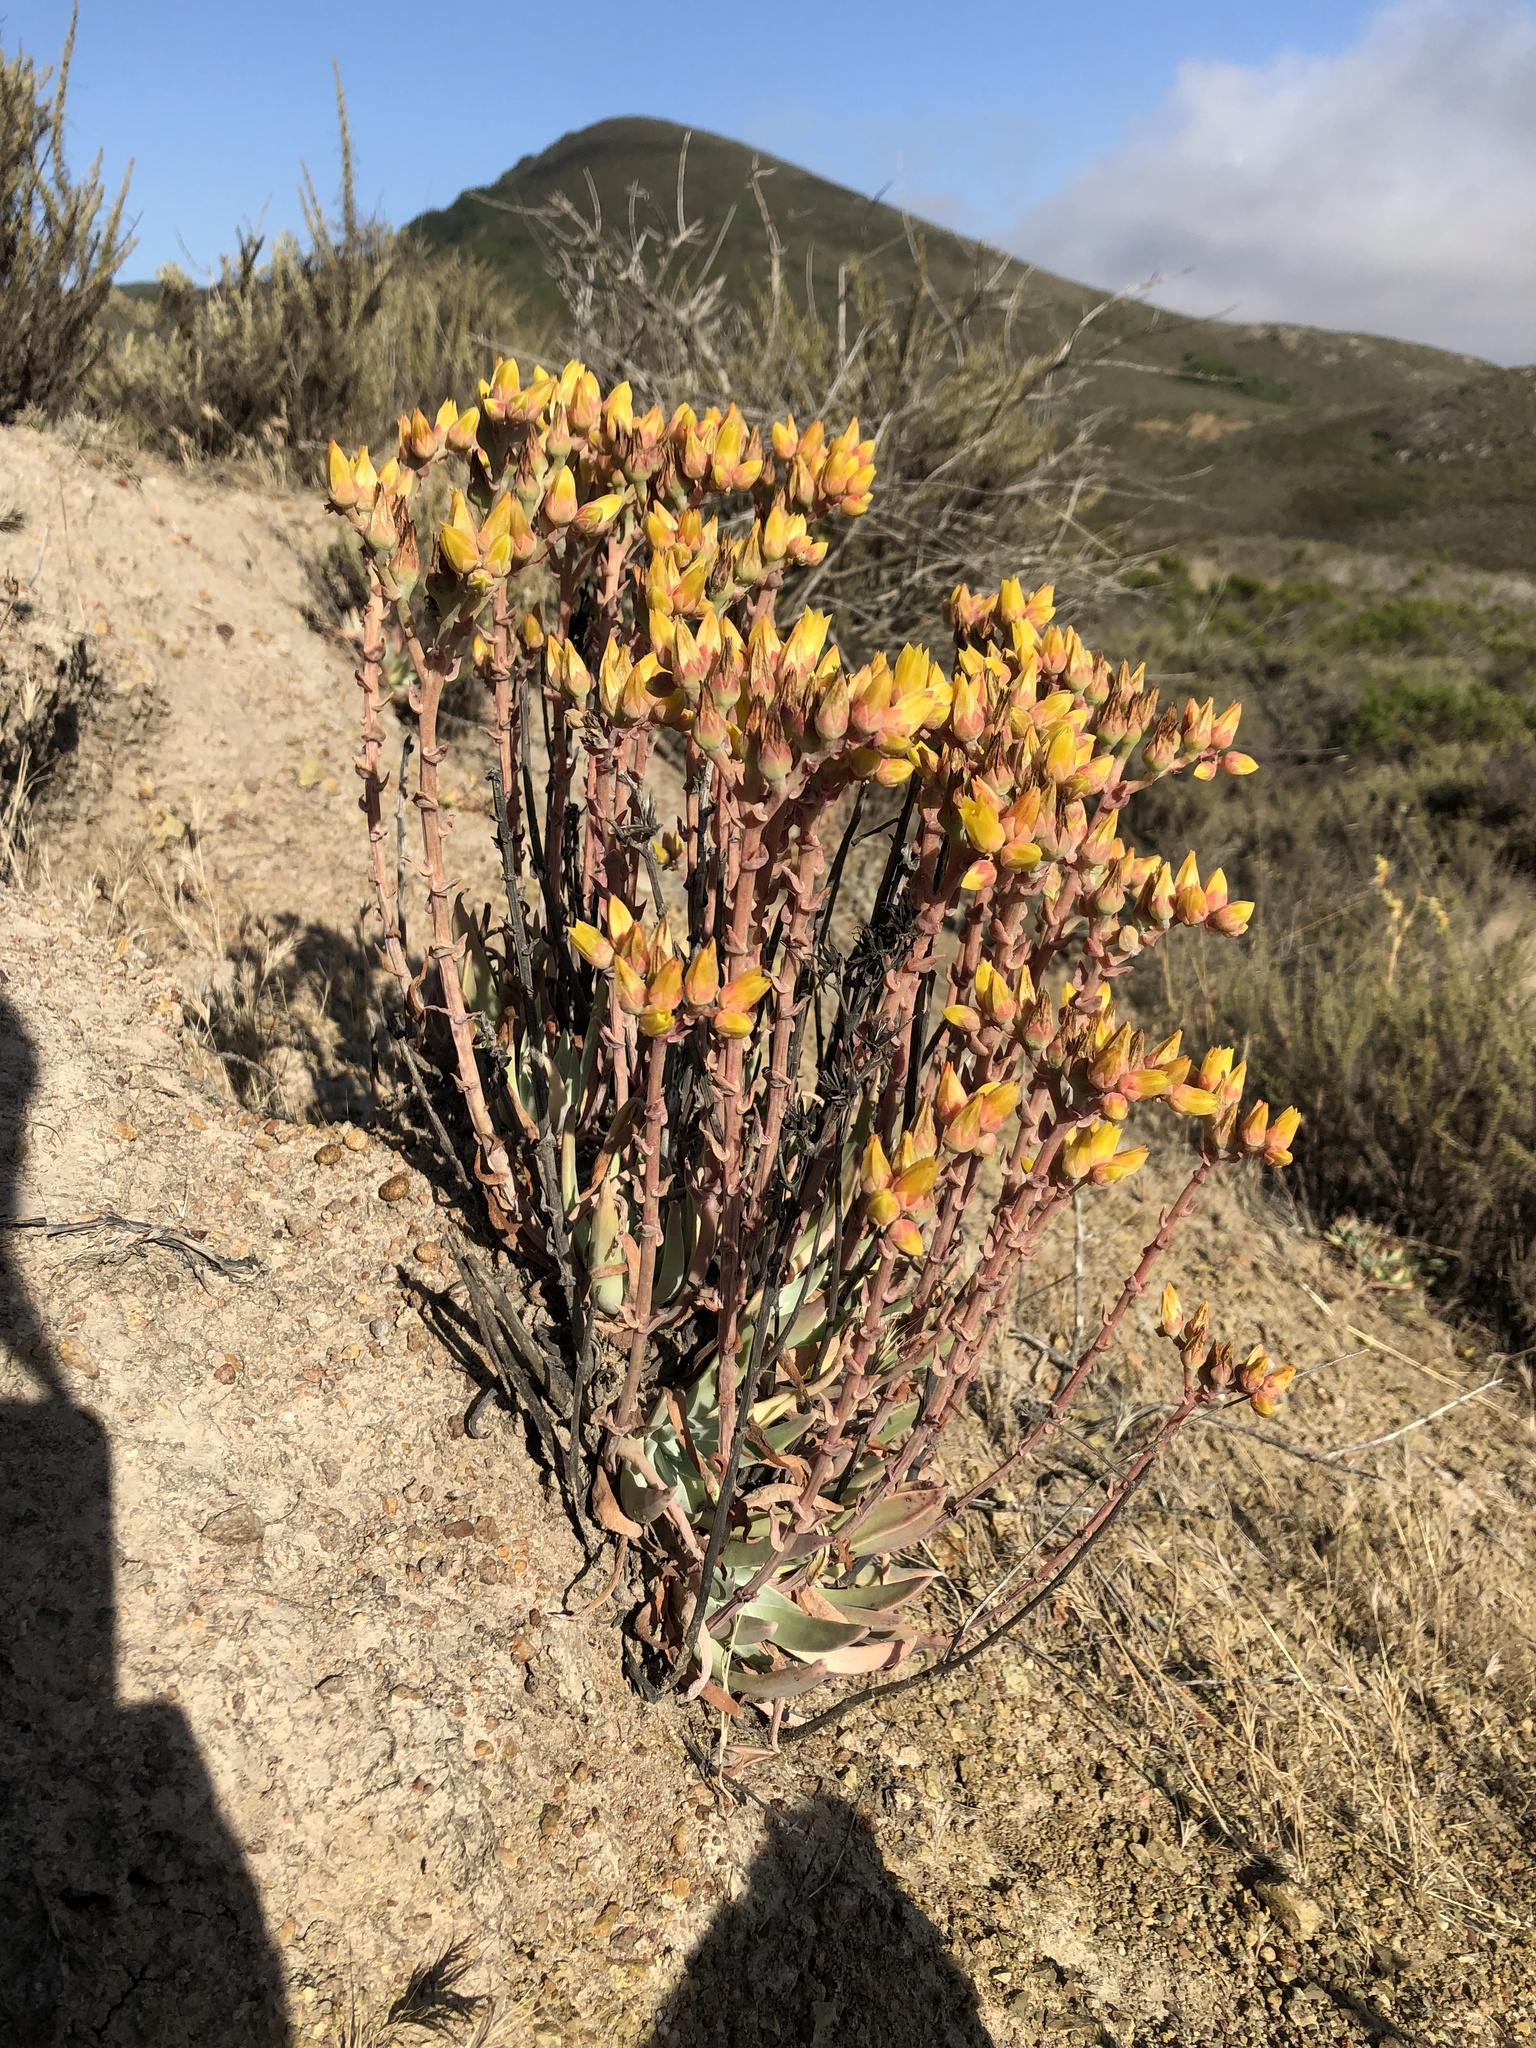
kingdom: Plantae
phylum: Tracheophyta
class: Magnoliopsida
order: Saxifragales
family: Crassulaceae
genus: Dudleya
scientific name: Dudleya lanceolata
